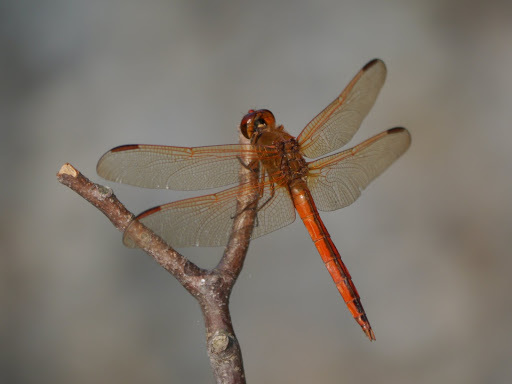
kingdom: Animalia
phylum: Arthropoda
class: Insecta
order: Odonata
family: Libellulidae
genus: Libellula
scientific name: Libellula needhami
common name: Needham's skimmer
